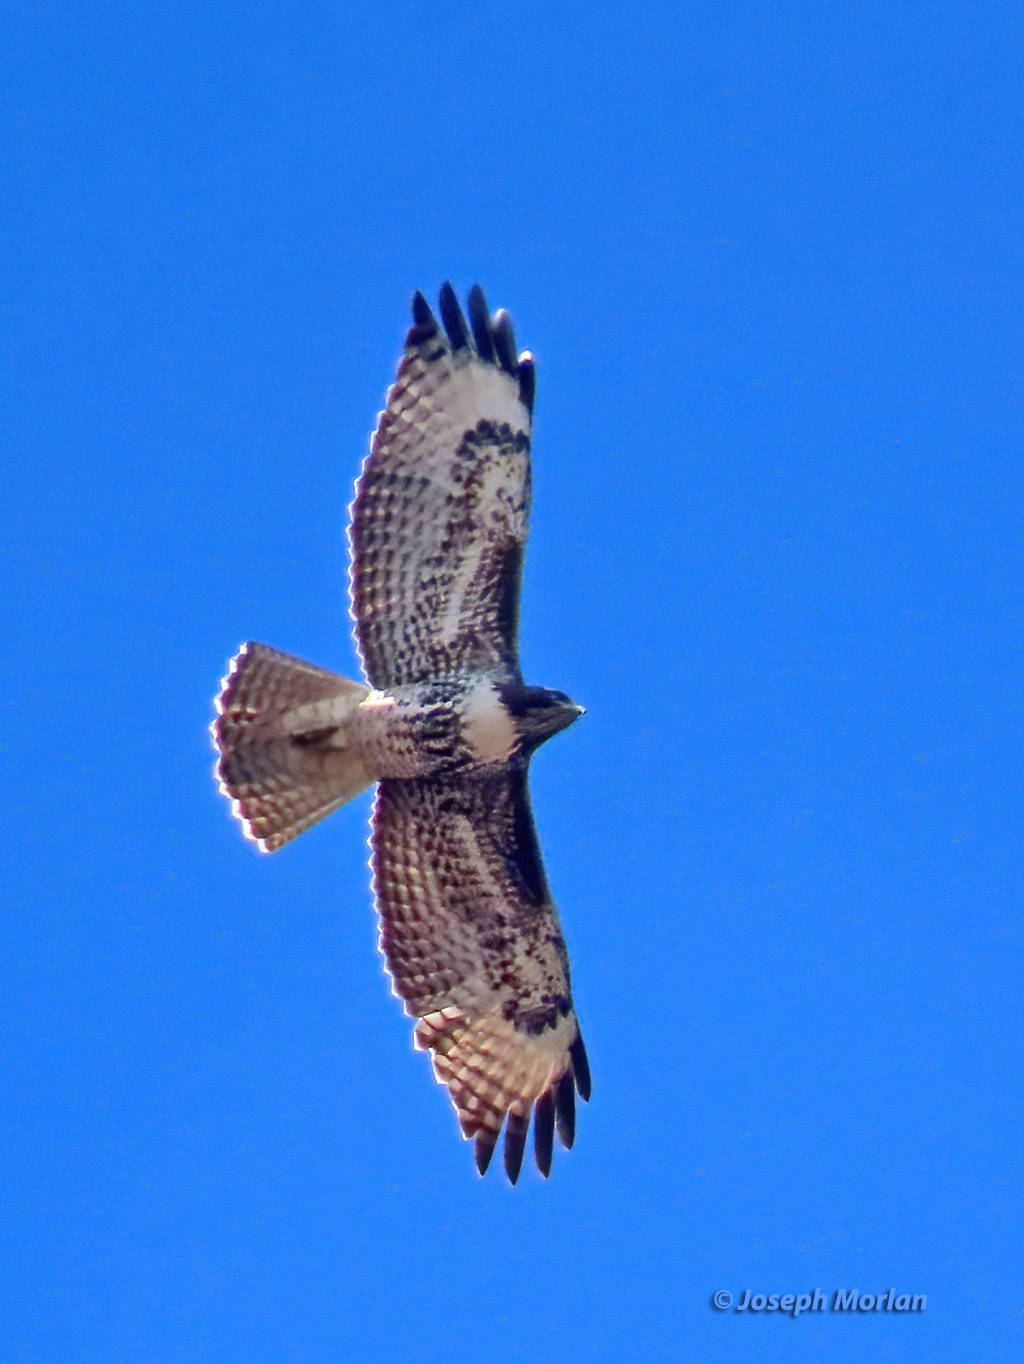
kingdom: Animalia
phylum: Chordata
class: Aves
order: Accipitriformes
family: Accipitridae
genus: Buteo
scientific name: Buteo jamaicensis
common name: Red-tailed hawk
